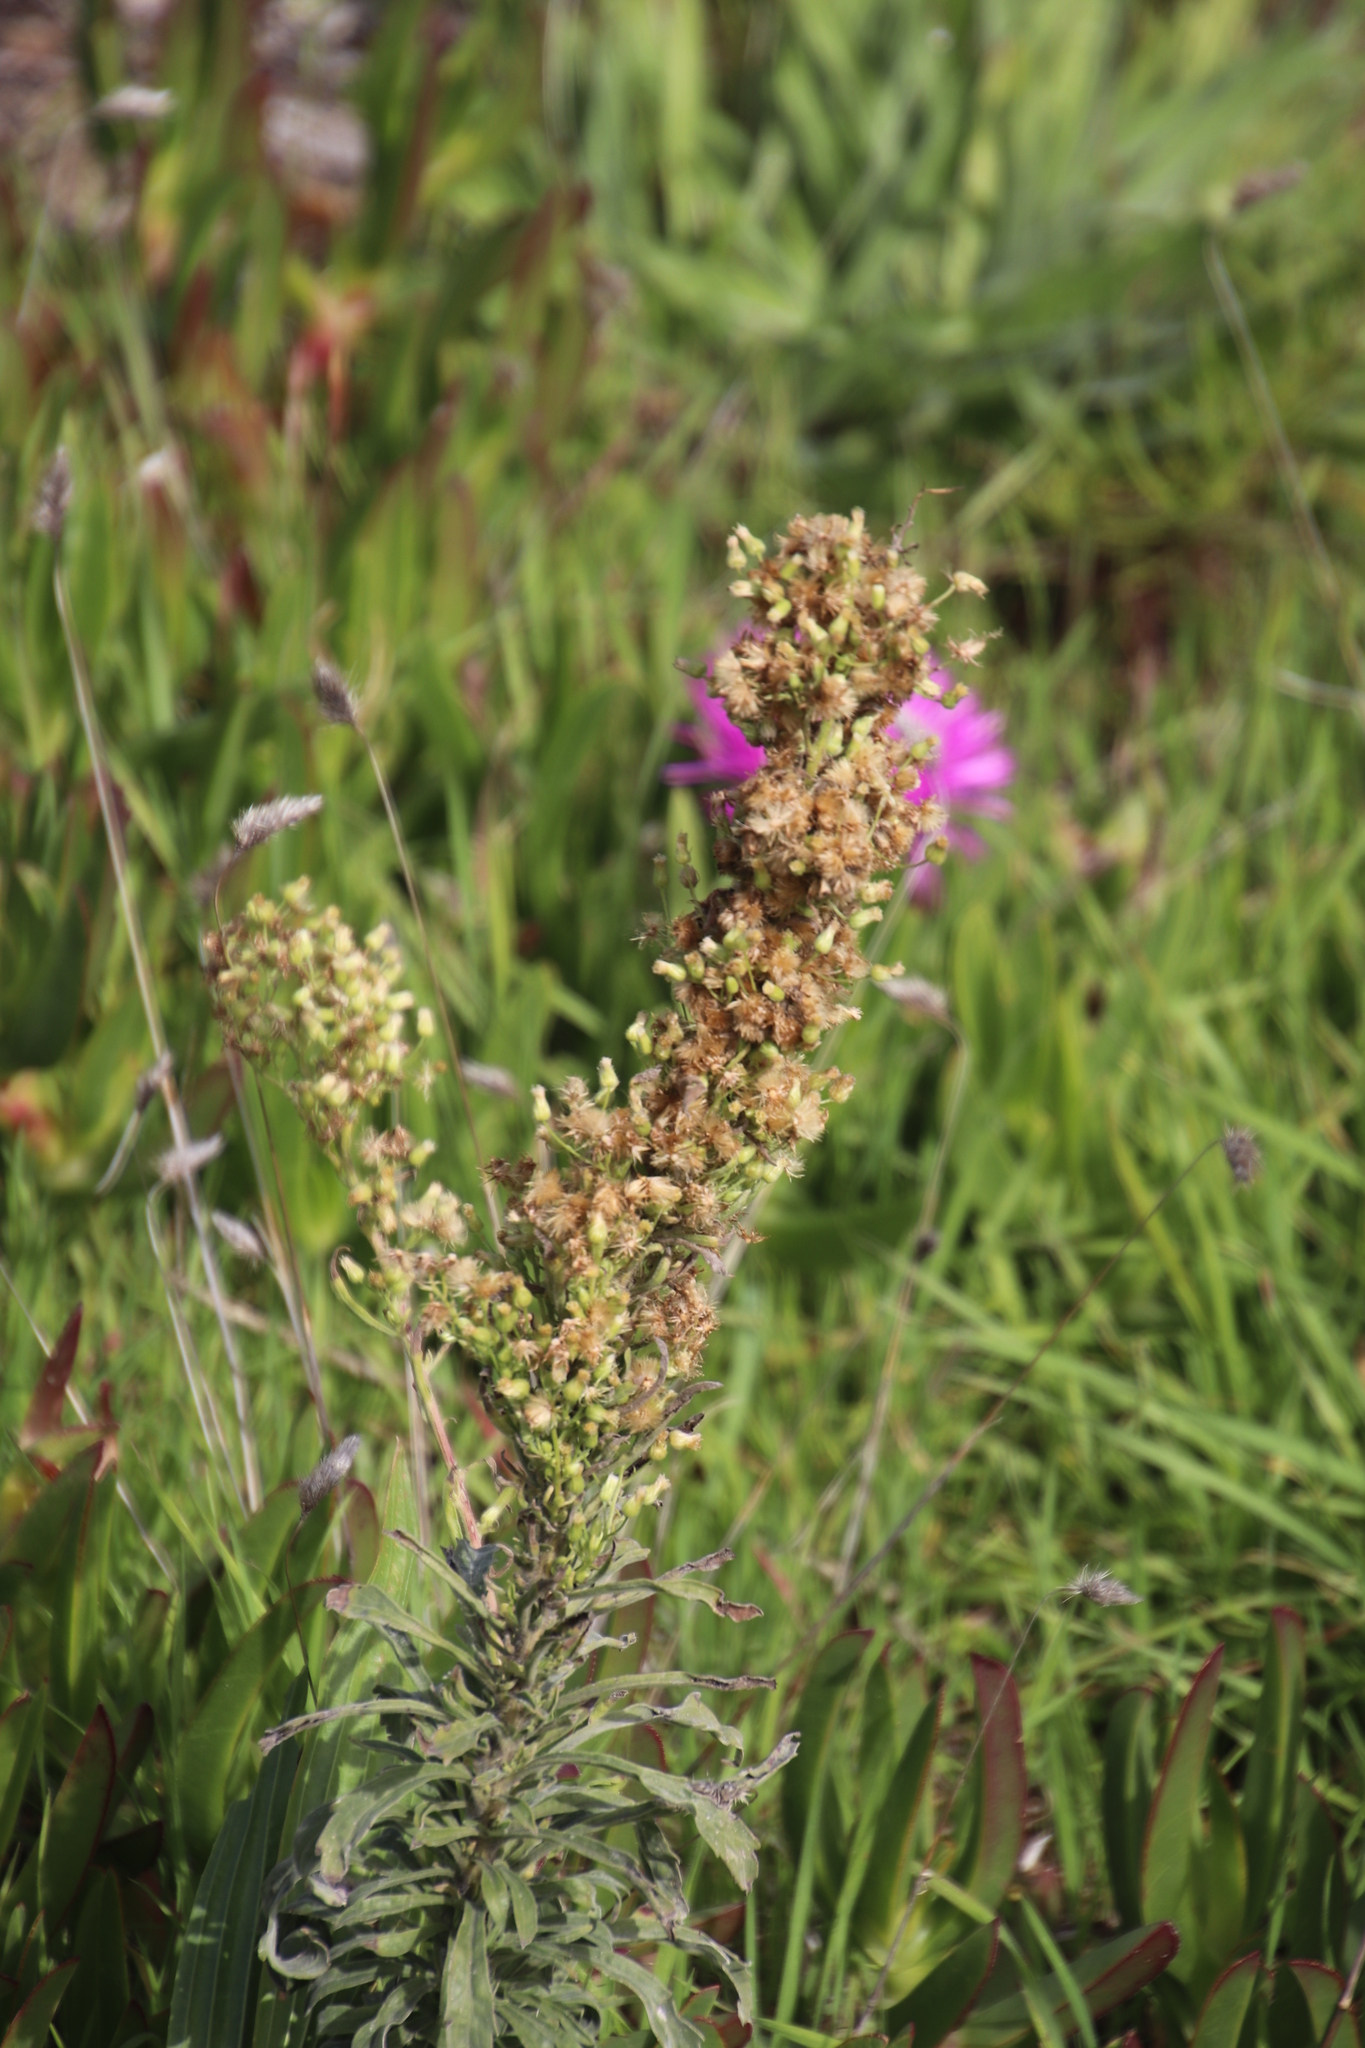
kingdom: Plantae
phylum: Tracheophyta
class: Magnoliopsida
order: Asterales
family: Asteraceae
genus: Erigeron
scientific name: Erigeron sumatrensis
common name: Daisy
